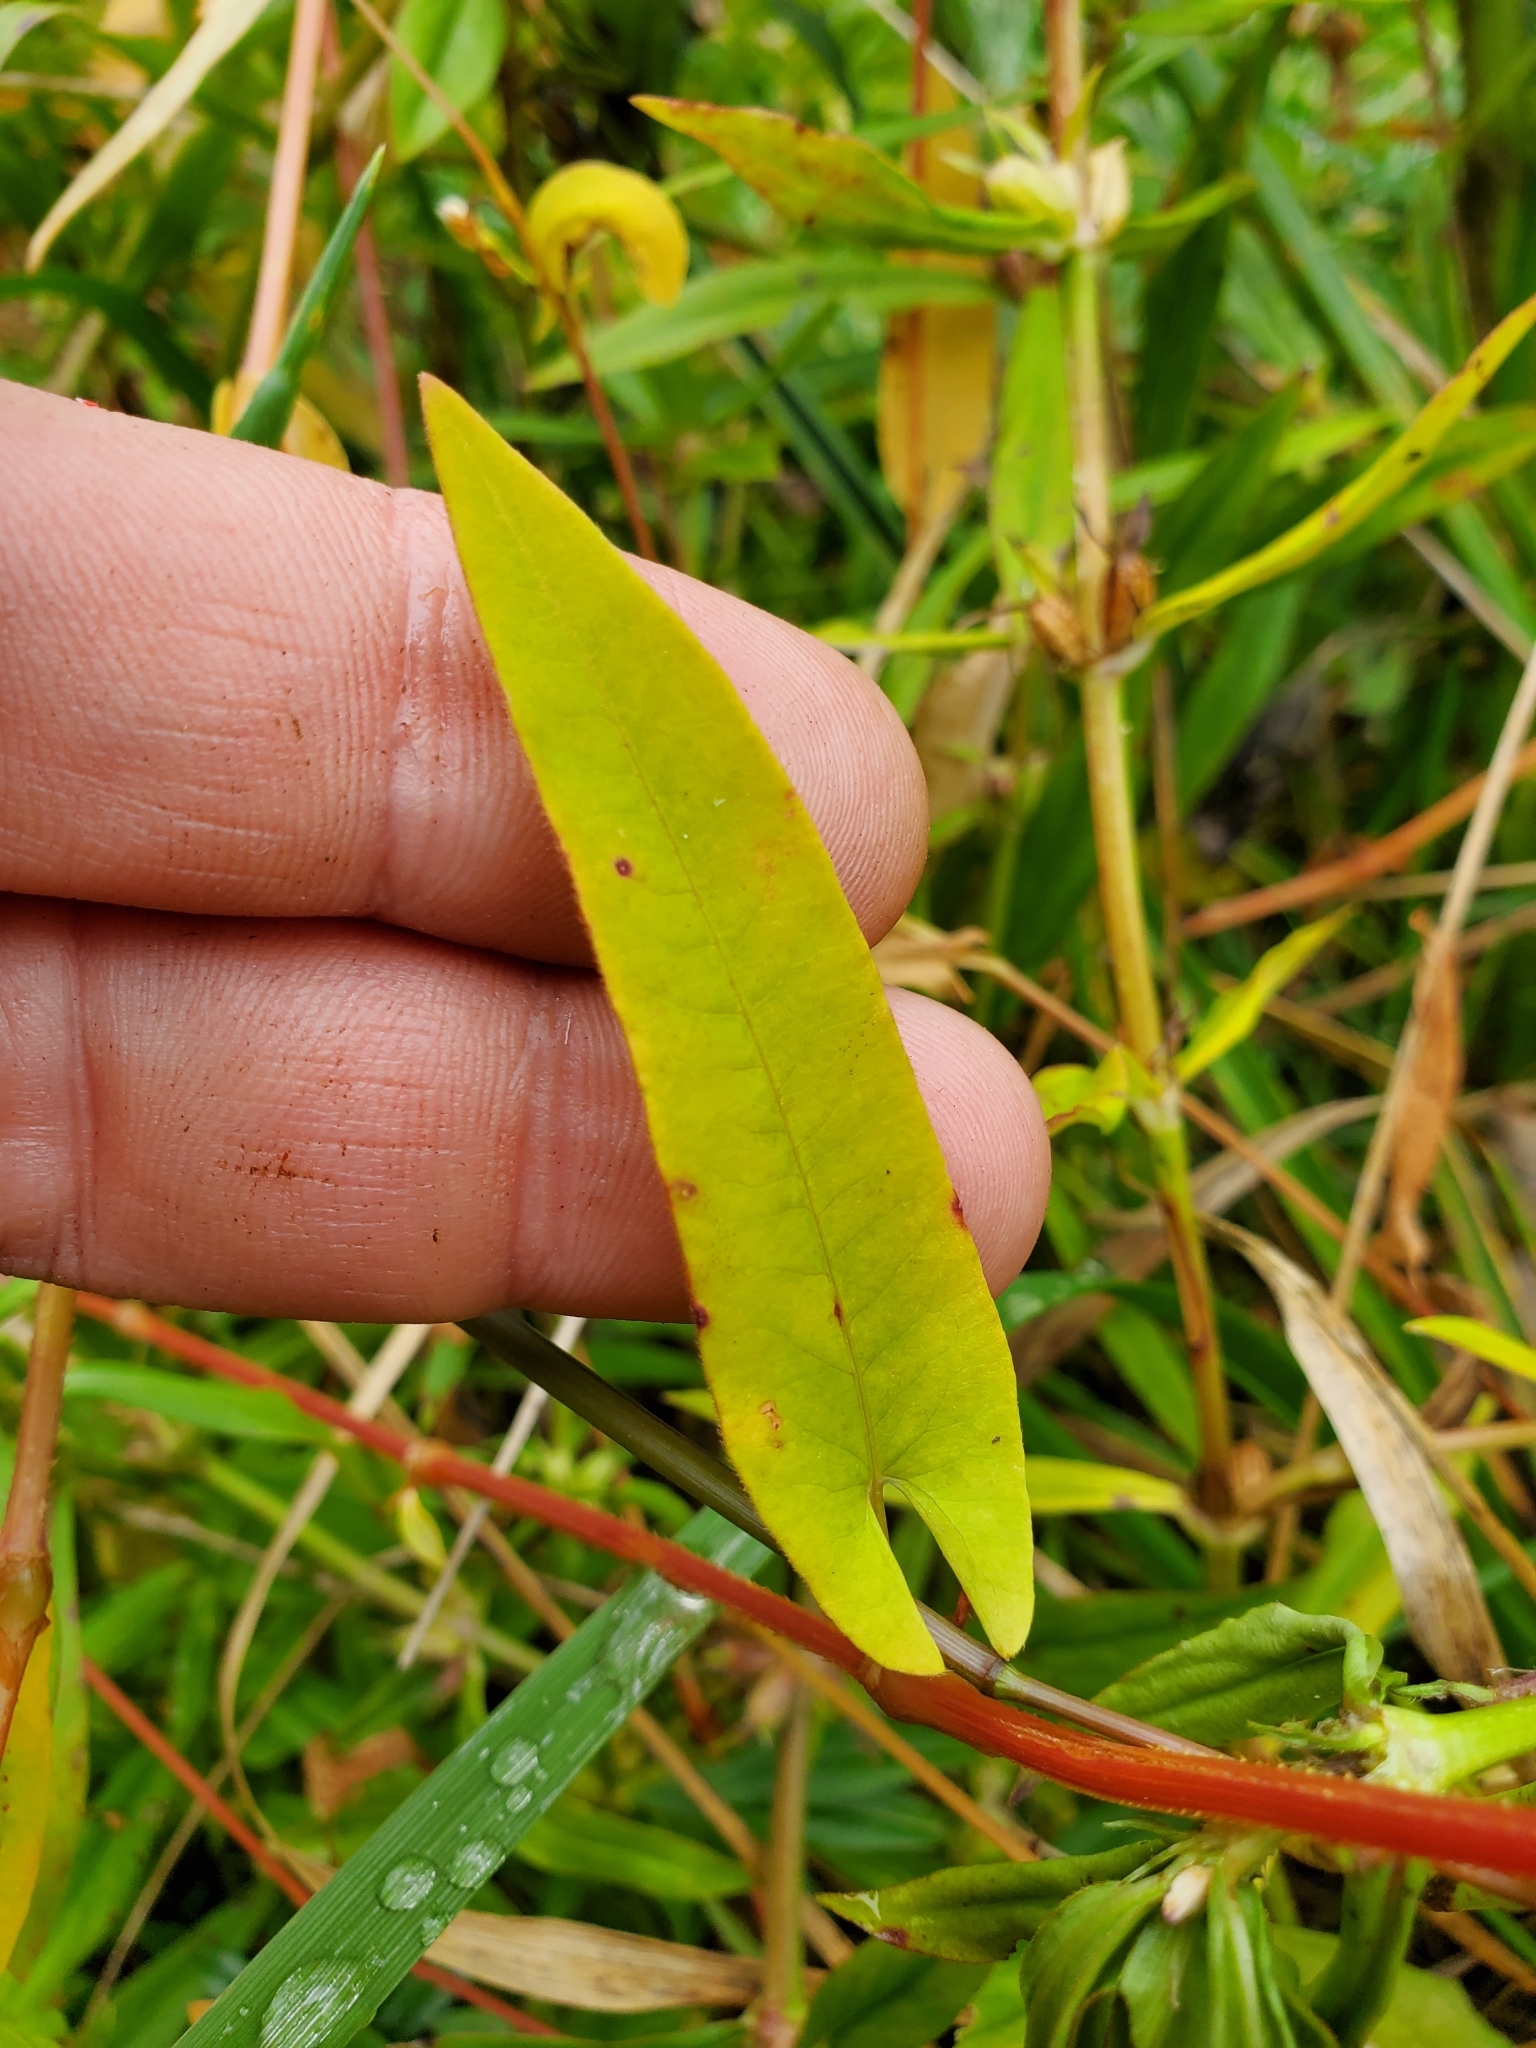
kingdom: Plantae
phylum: Tracheophyta
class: Magnoliopsida
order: Caryophyllales
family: Polygonaceae
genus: Persicaria
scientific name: Persicaria sagittata
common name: American tearthumb
